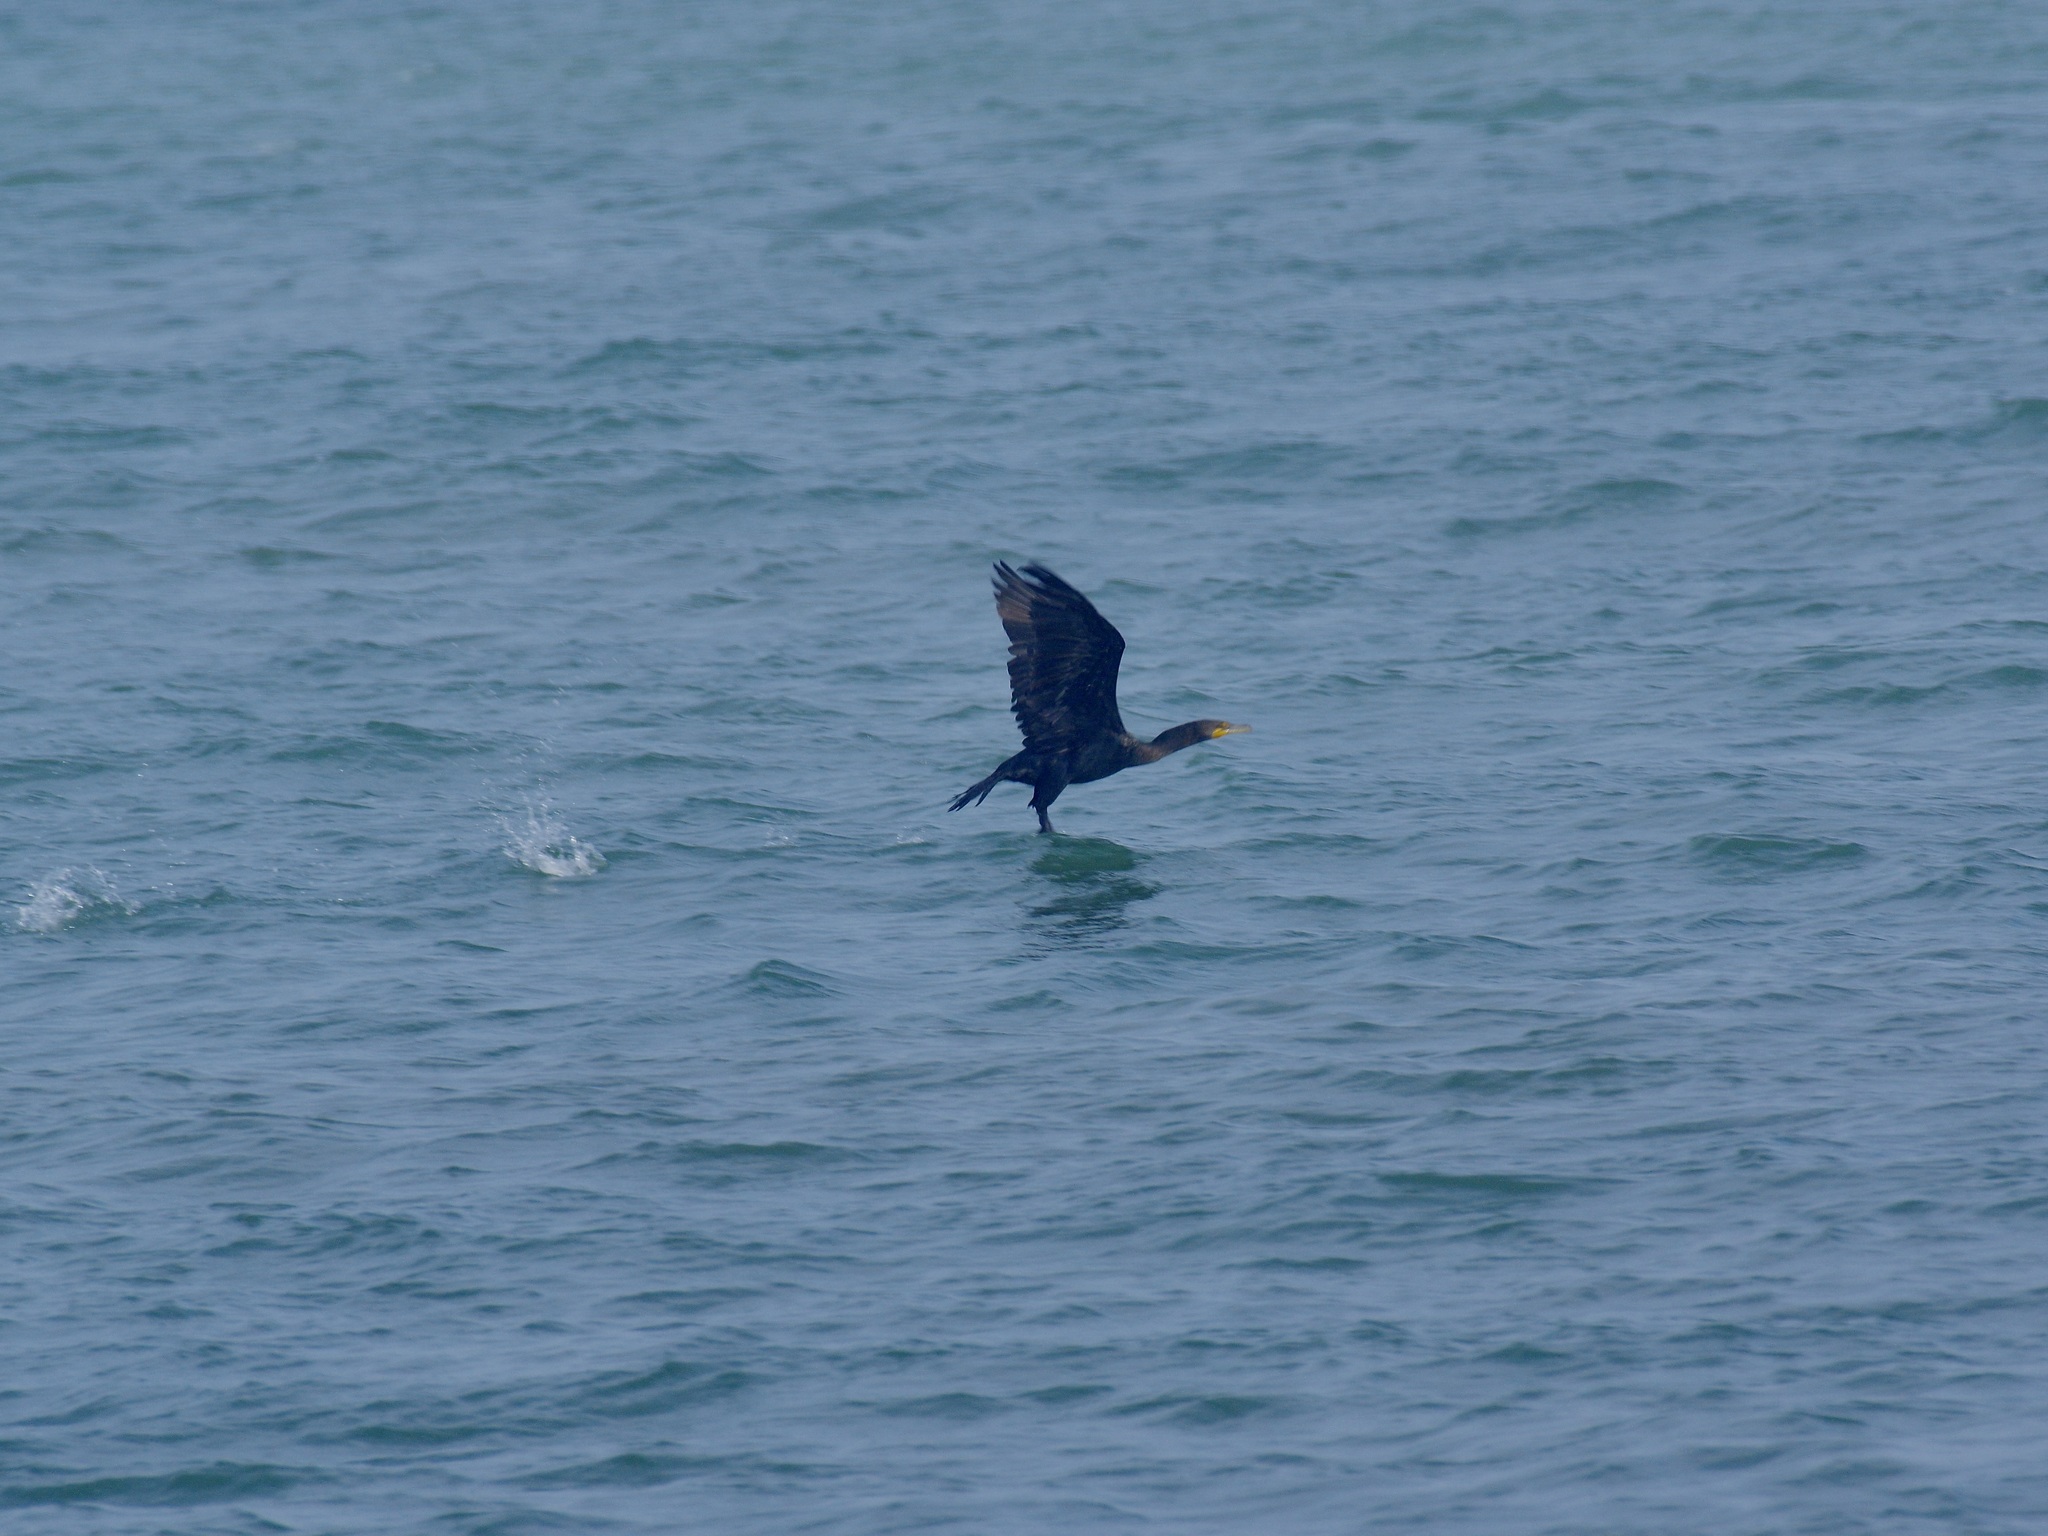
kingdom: Animalia
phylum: Chordata
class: Aves
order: Suliformes
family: Phalacrocoracidae
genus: Phalacrocorax
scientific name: Phalacrocorax auritus
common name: Double-crested cormorant
